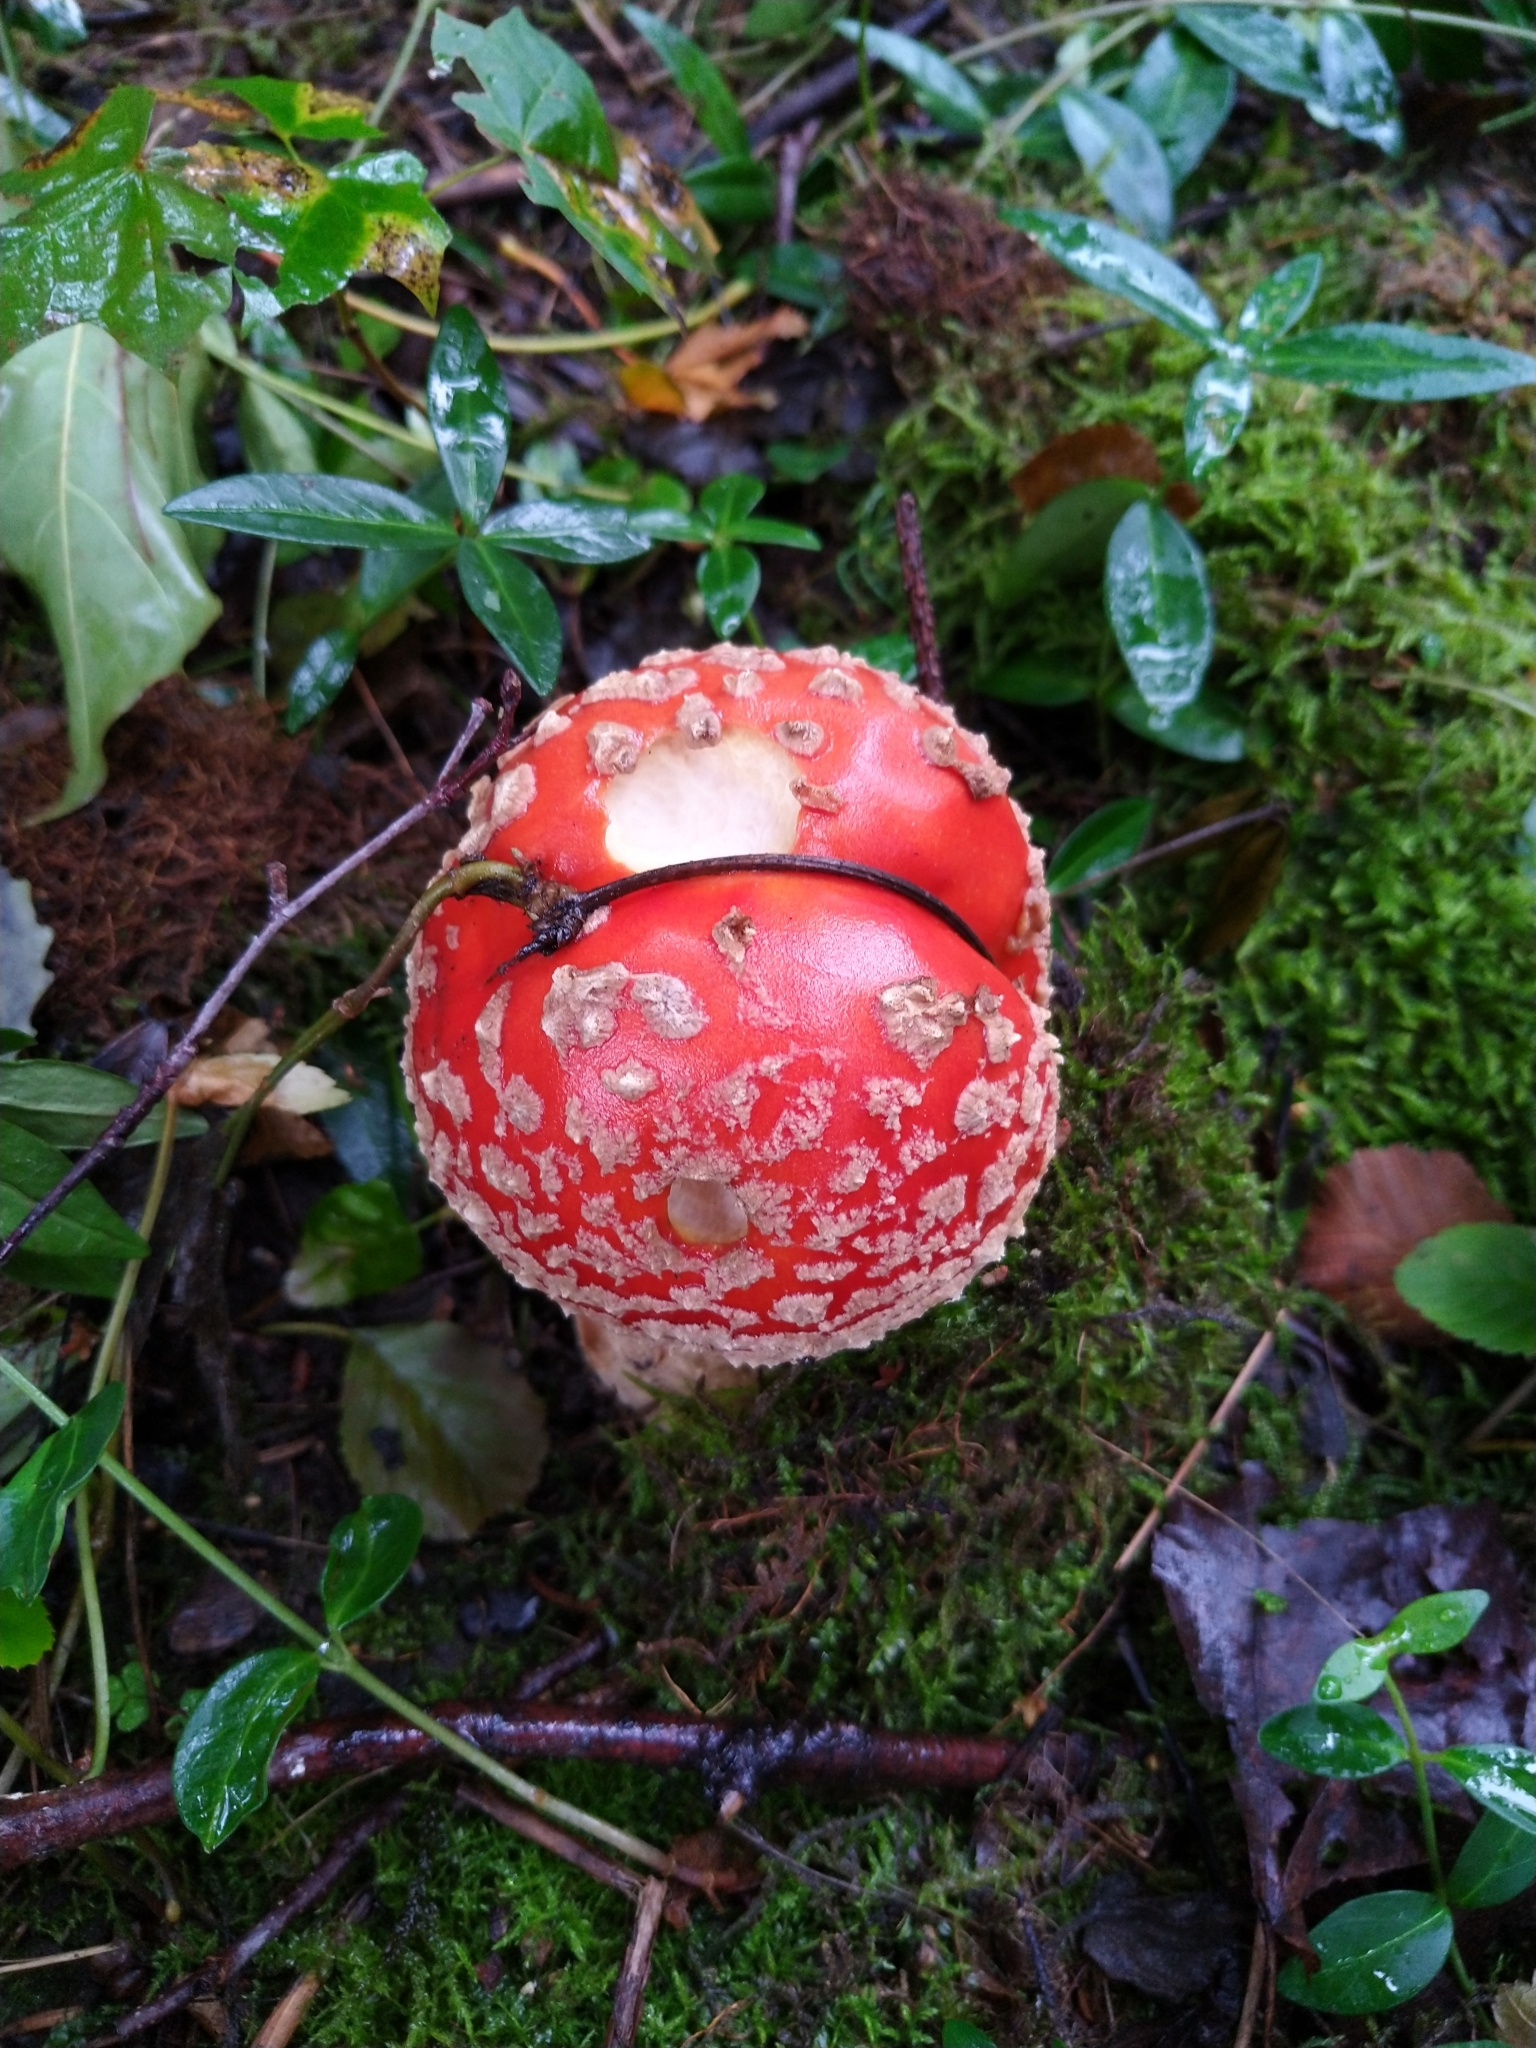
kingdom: Fungi
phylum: Basidiomycota
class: Agaricomycetes
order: Agaricales
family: Amanitaceae
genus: Amanita
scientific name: Amanita muscaria
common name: Fly agaric
